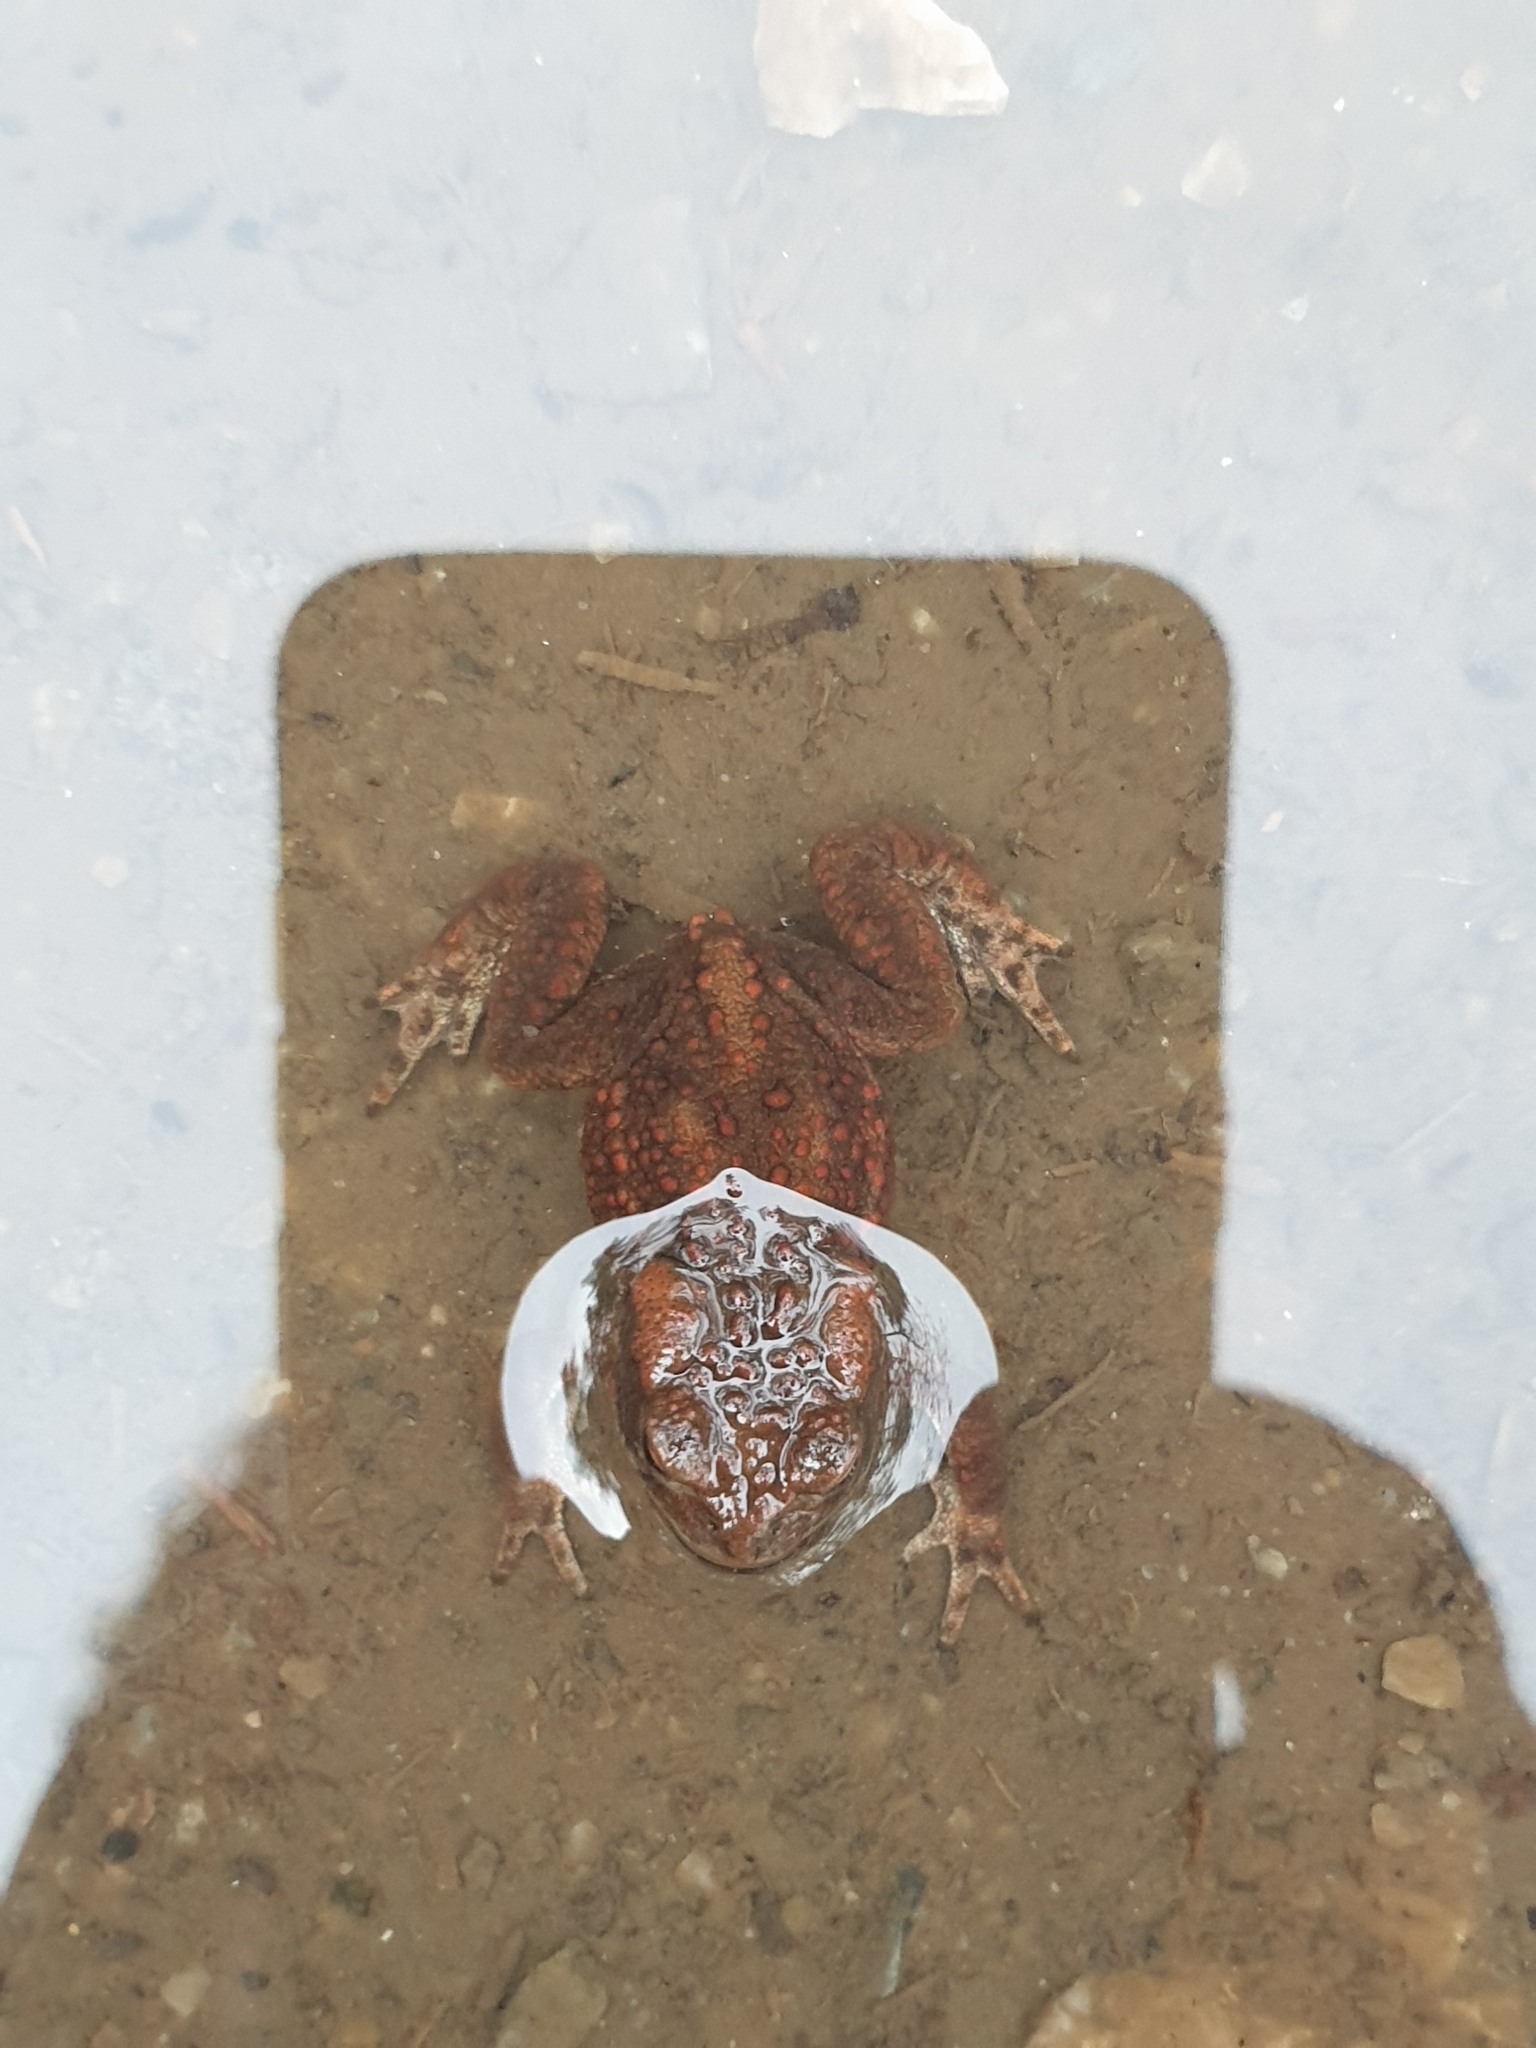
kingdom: Animalia
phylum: Chordata
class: Amphibia
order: Anura
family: Bufonidae
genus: Bufo
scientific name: Bufo bufo
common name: Common toad
